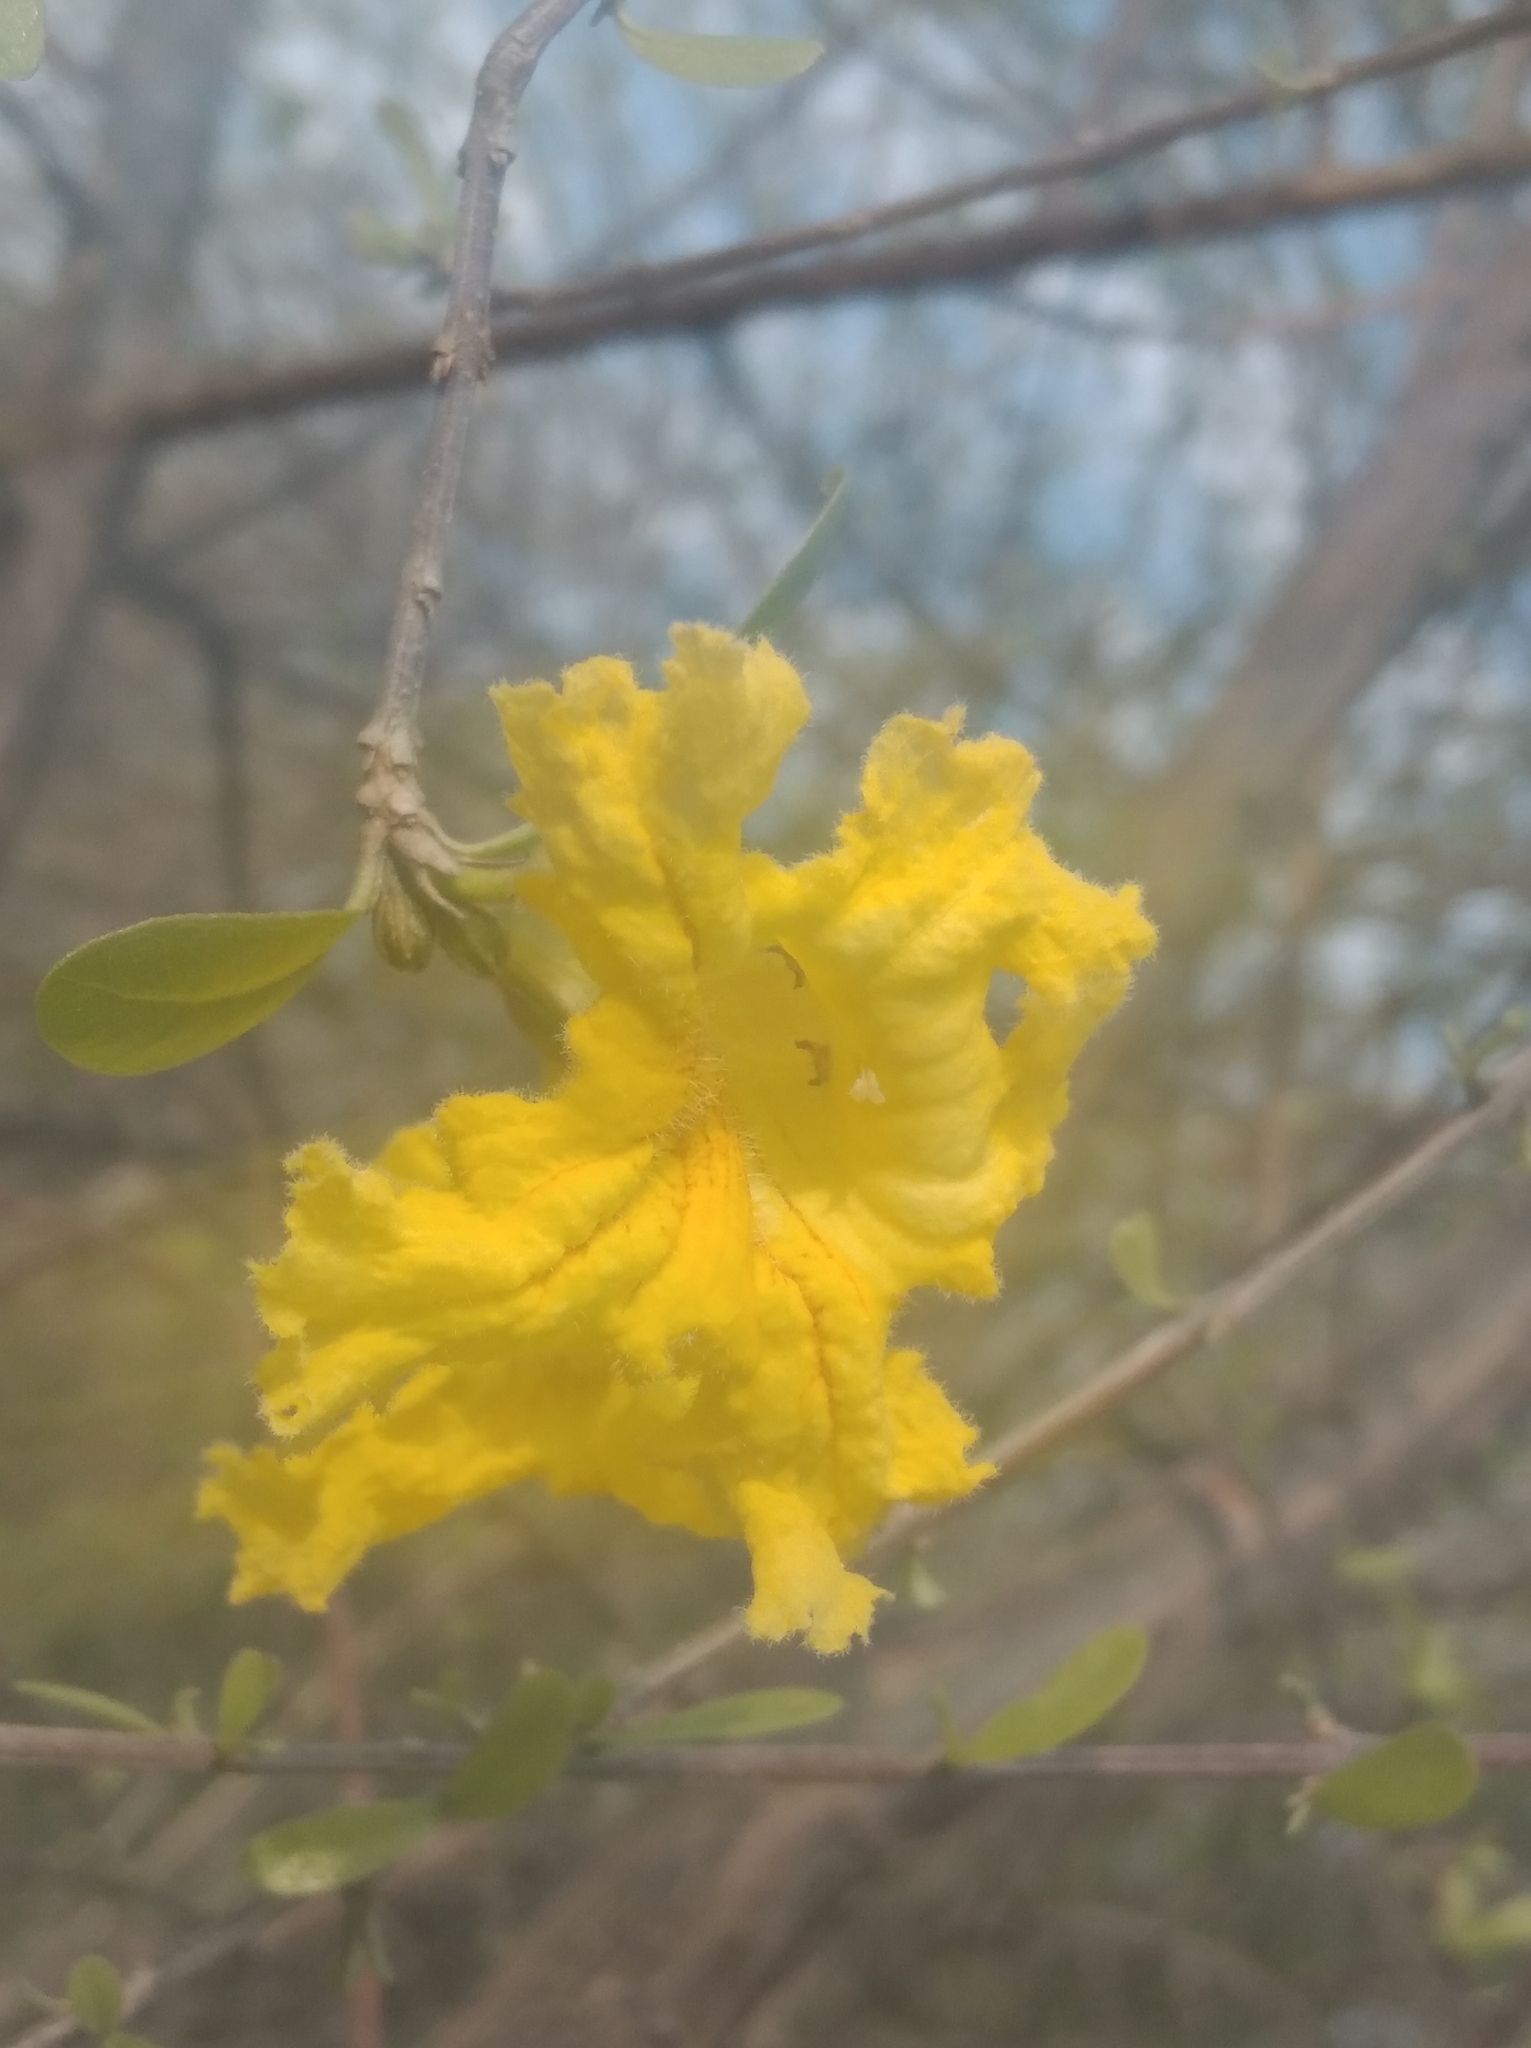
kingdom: Plantae
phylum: Tracheophyta
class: Magnoliopsida
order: Lamiales
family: Bignoniaceae
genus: Tabebuia
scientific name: Tabebuia aurea
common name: Caribbean trumpet-tree
